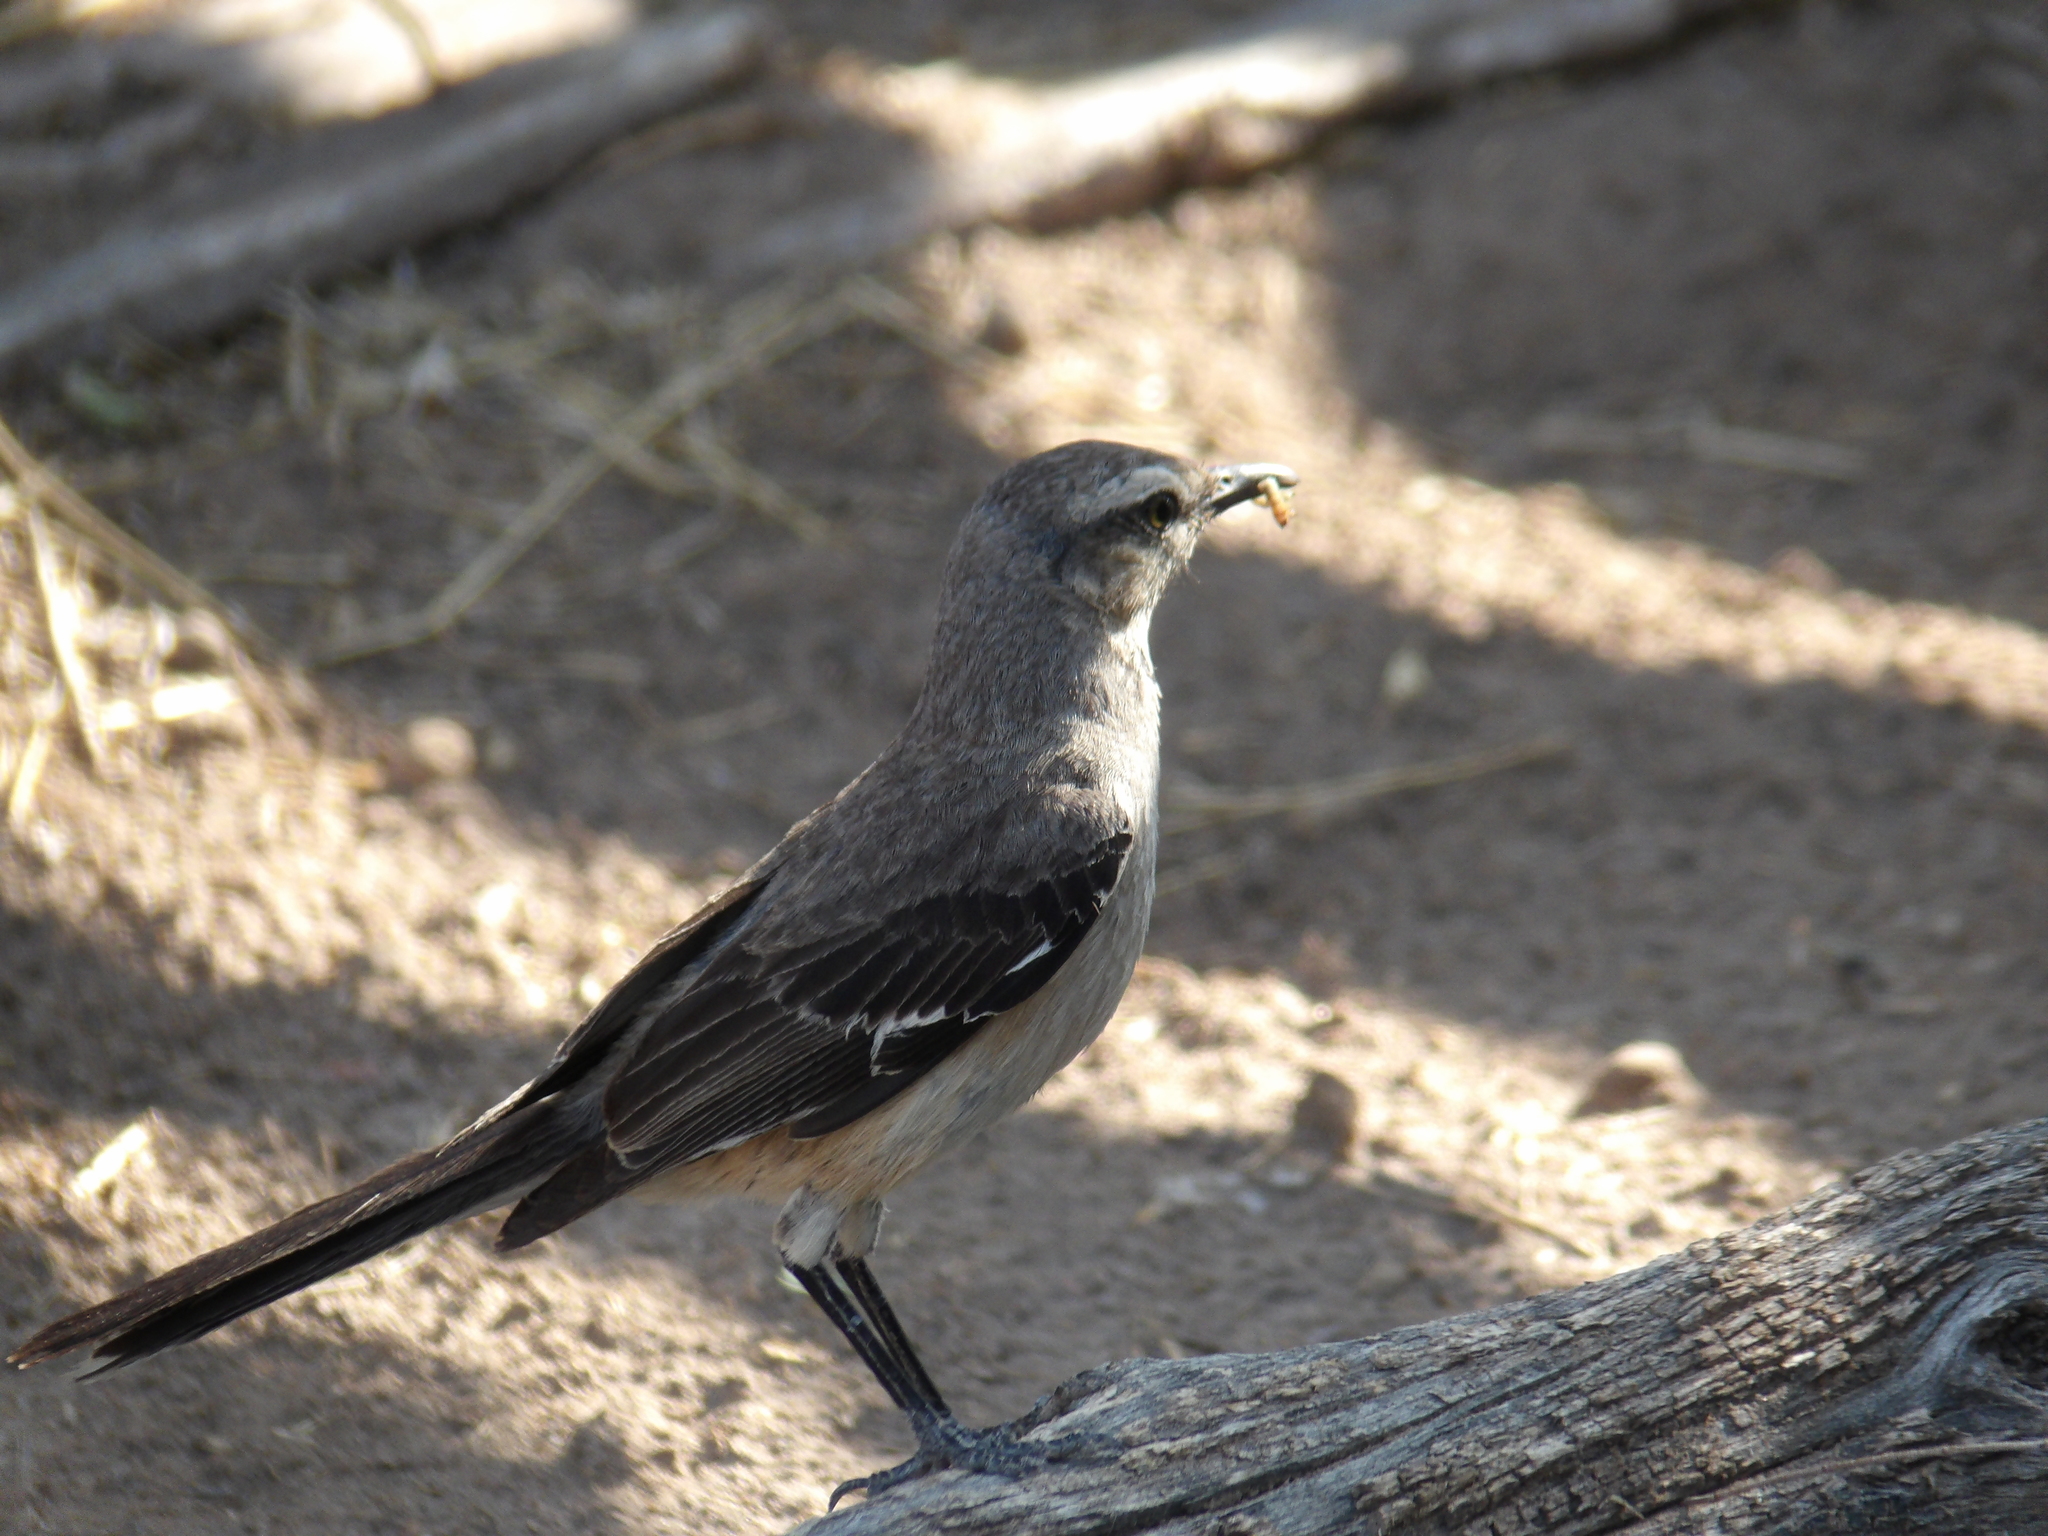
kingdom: Animalia
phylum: Chordata
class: Aves
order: Passeriformes
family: Mimidae
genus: Mimus
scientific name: Mimus patagonicus
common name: Patagonian mockingbird
